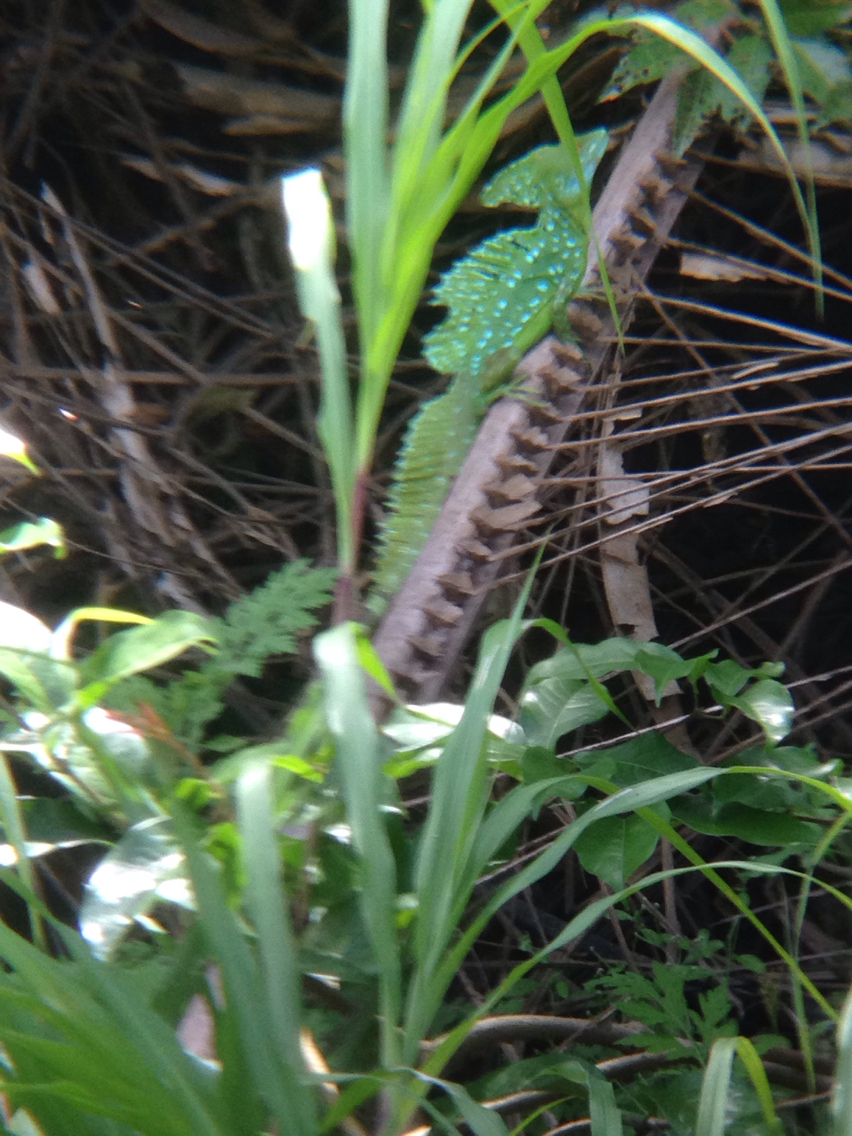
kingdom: Animalia
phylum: Chordata
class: Squamata
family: Corytophanidae
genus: Basiliscus
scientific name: Basiliscus plumifrons
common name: Green basilisk
